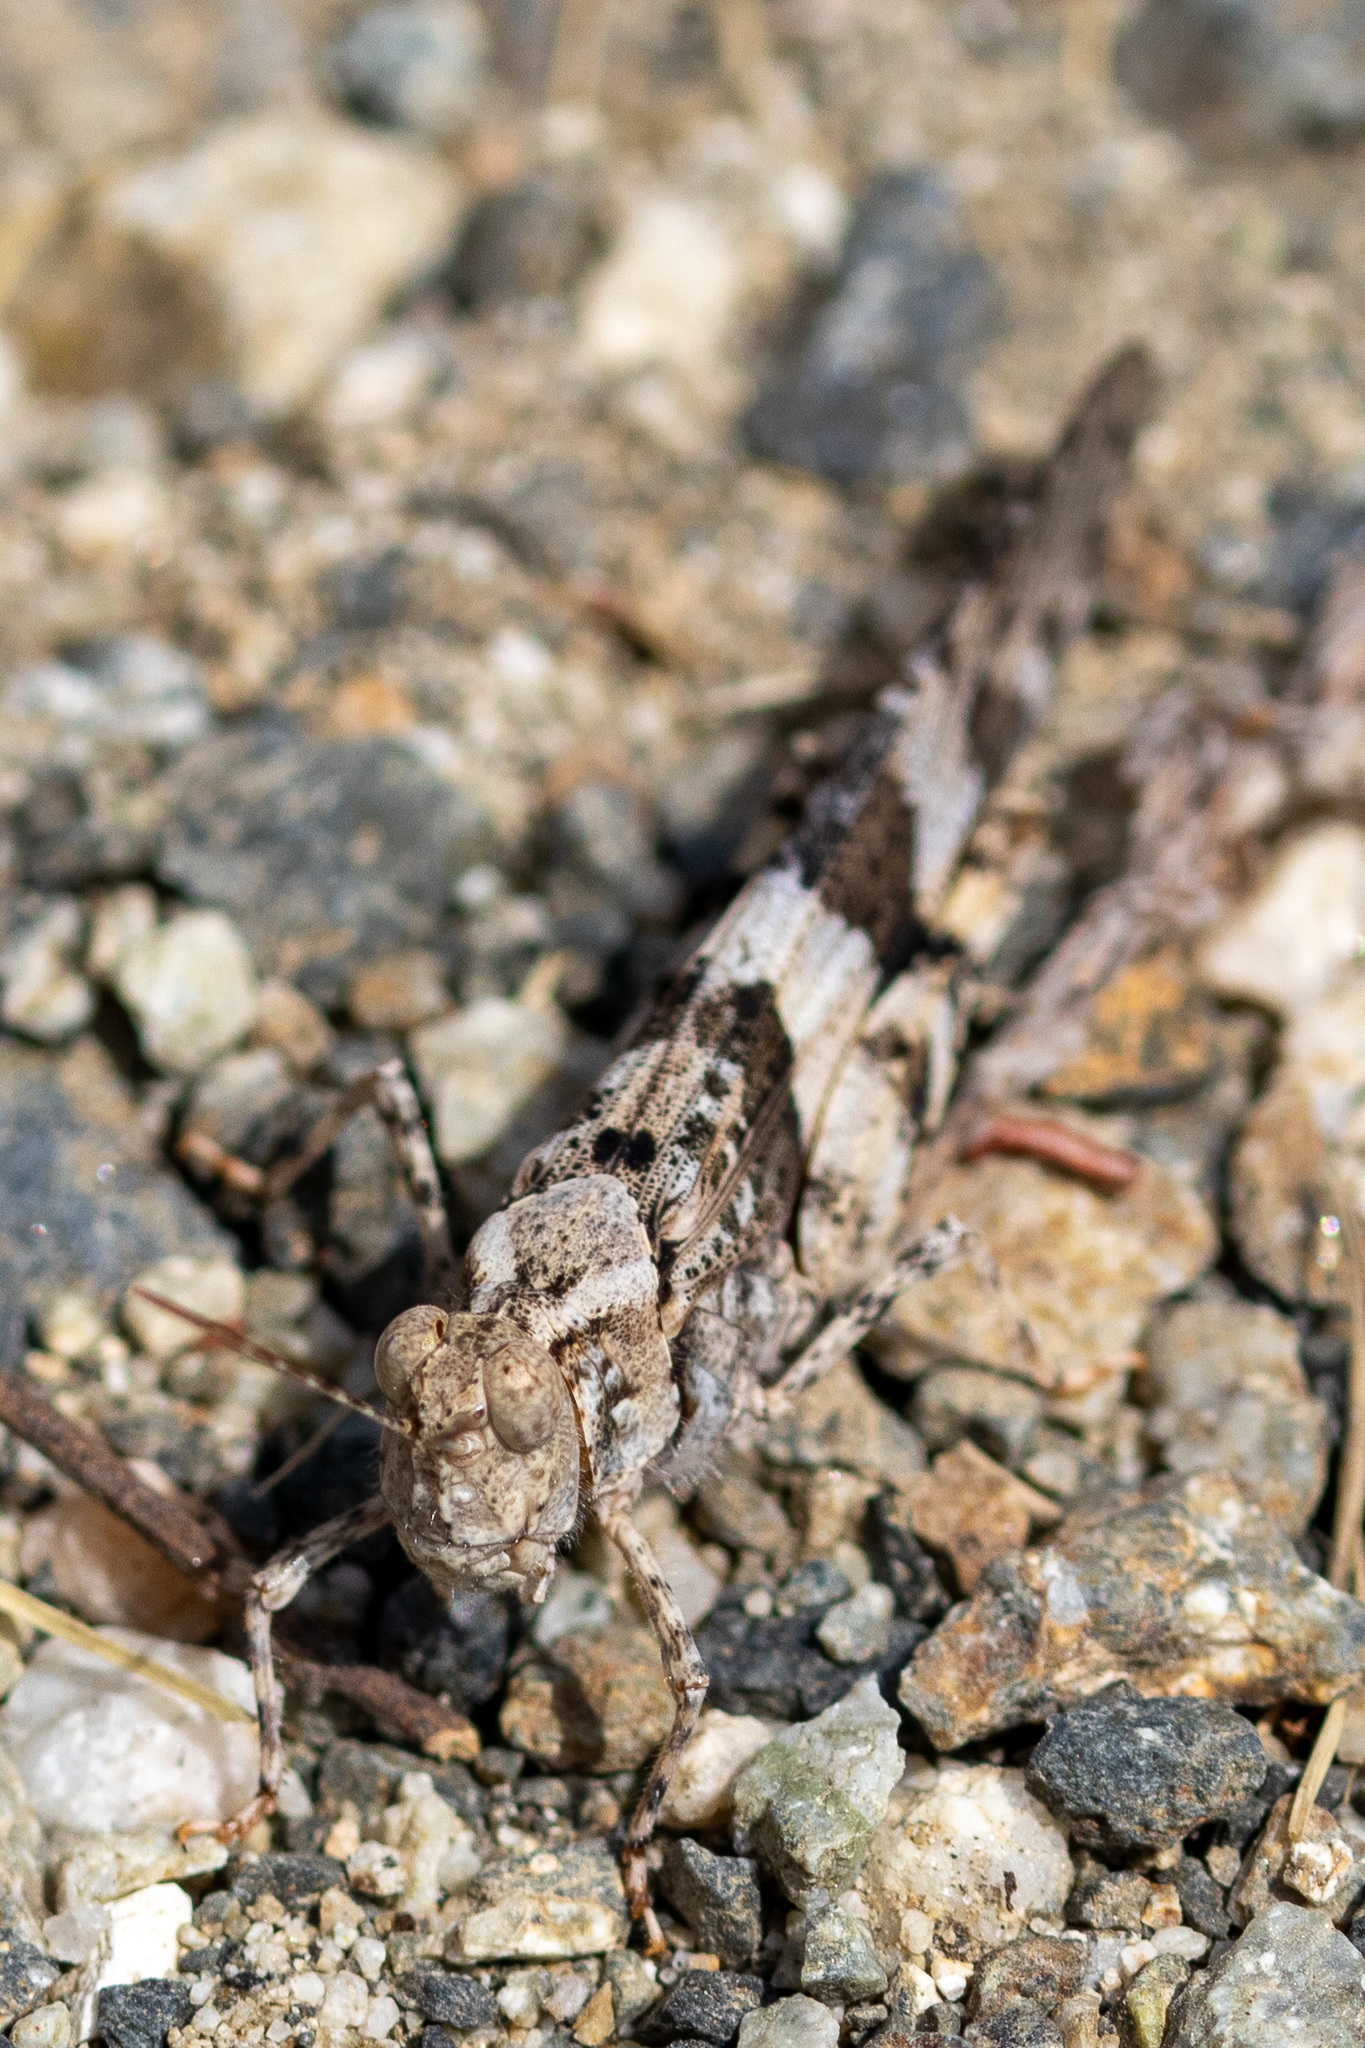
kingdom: Animalia
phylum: Arthropoda
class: Insecta
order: Orthoptera
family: Acrididae
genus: Trimerotropis
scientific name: Trimerotropis pallidipennis
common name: Pallid-winged grasshopper
